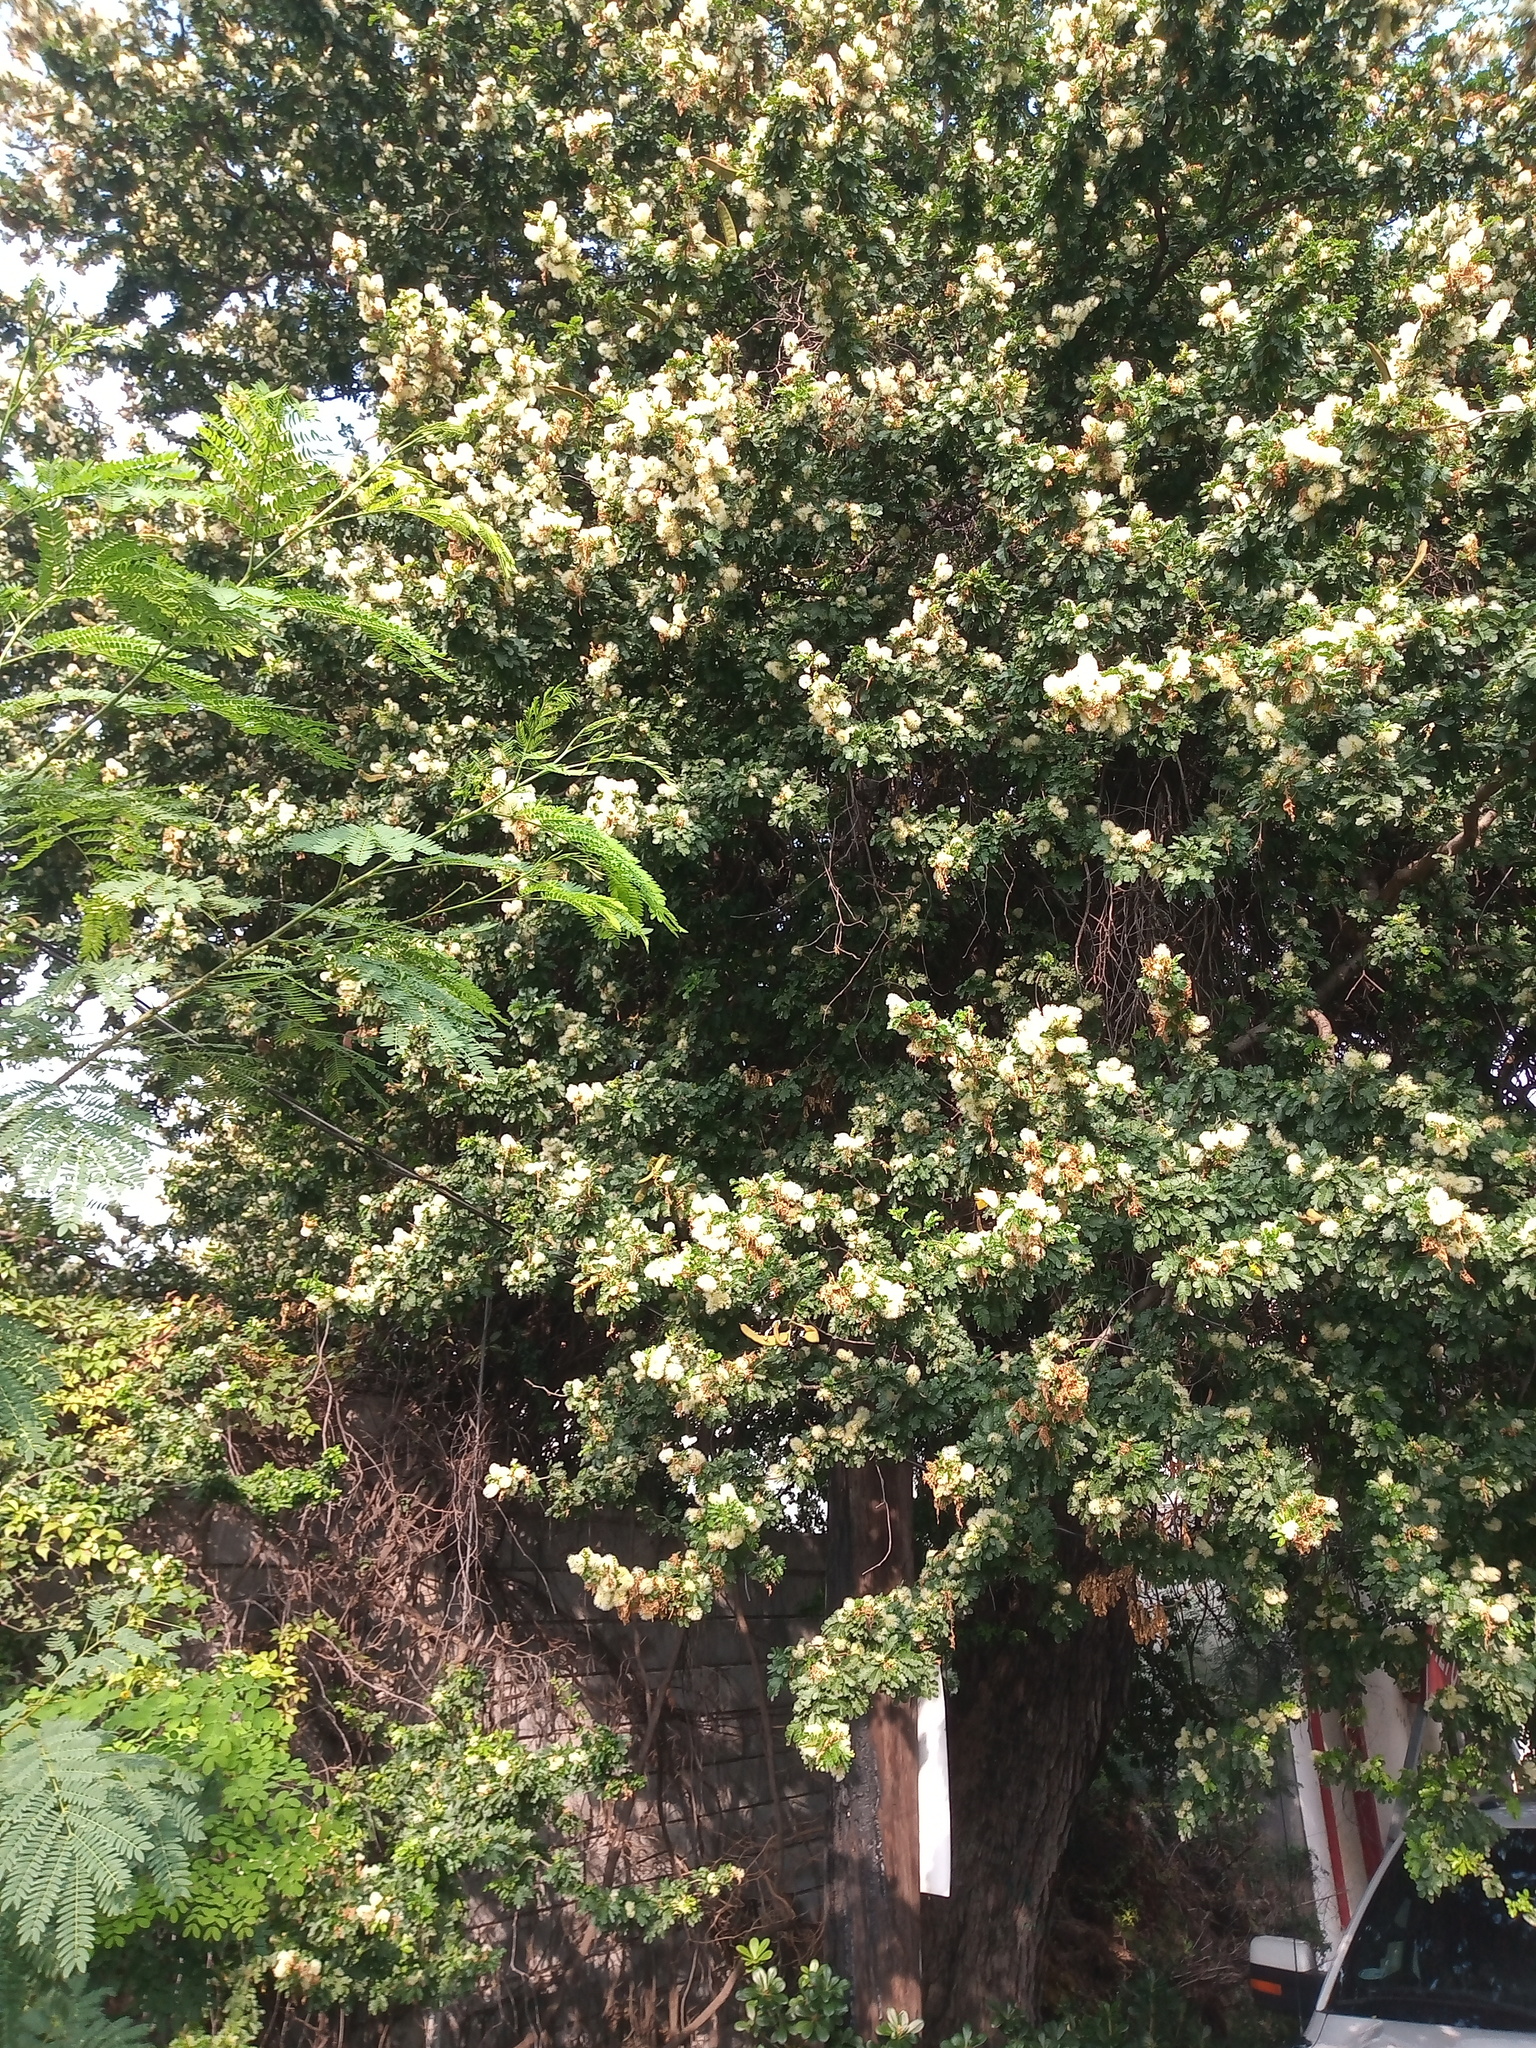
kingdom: Plantae
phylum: Tracheophyta
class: Magnoliopsida
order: Fabales
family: Fabaceae
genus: Ebenopsis
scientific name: Ebenopsis ebano
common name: Ebony blackbead
